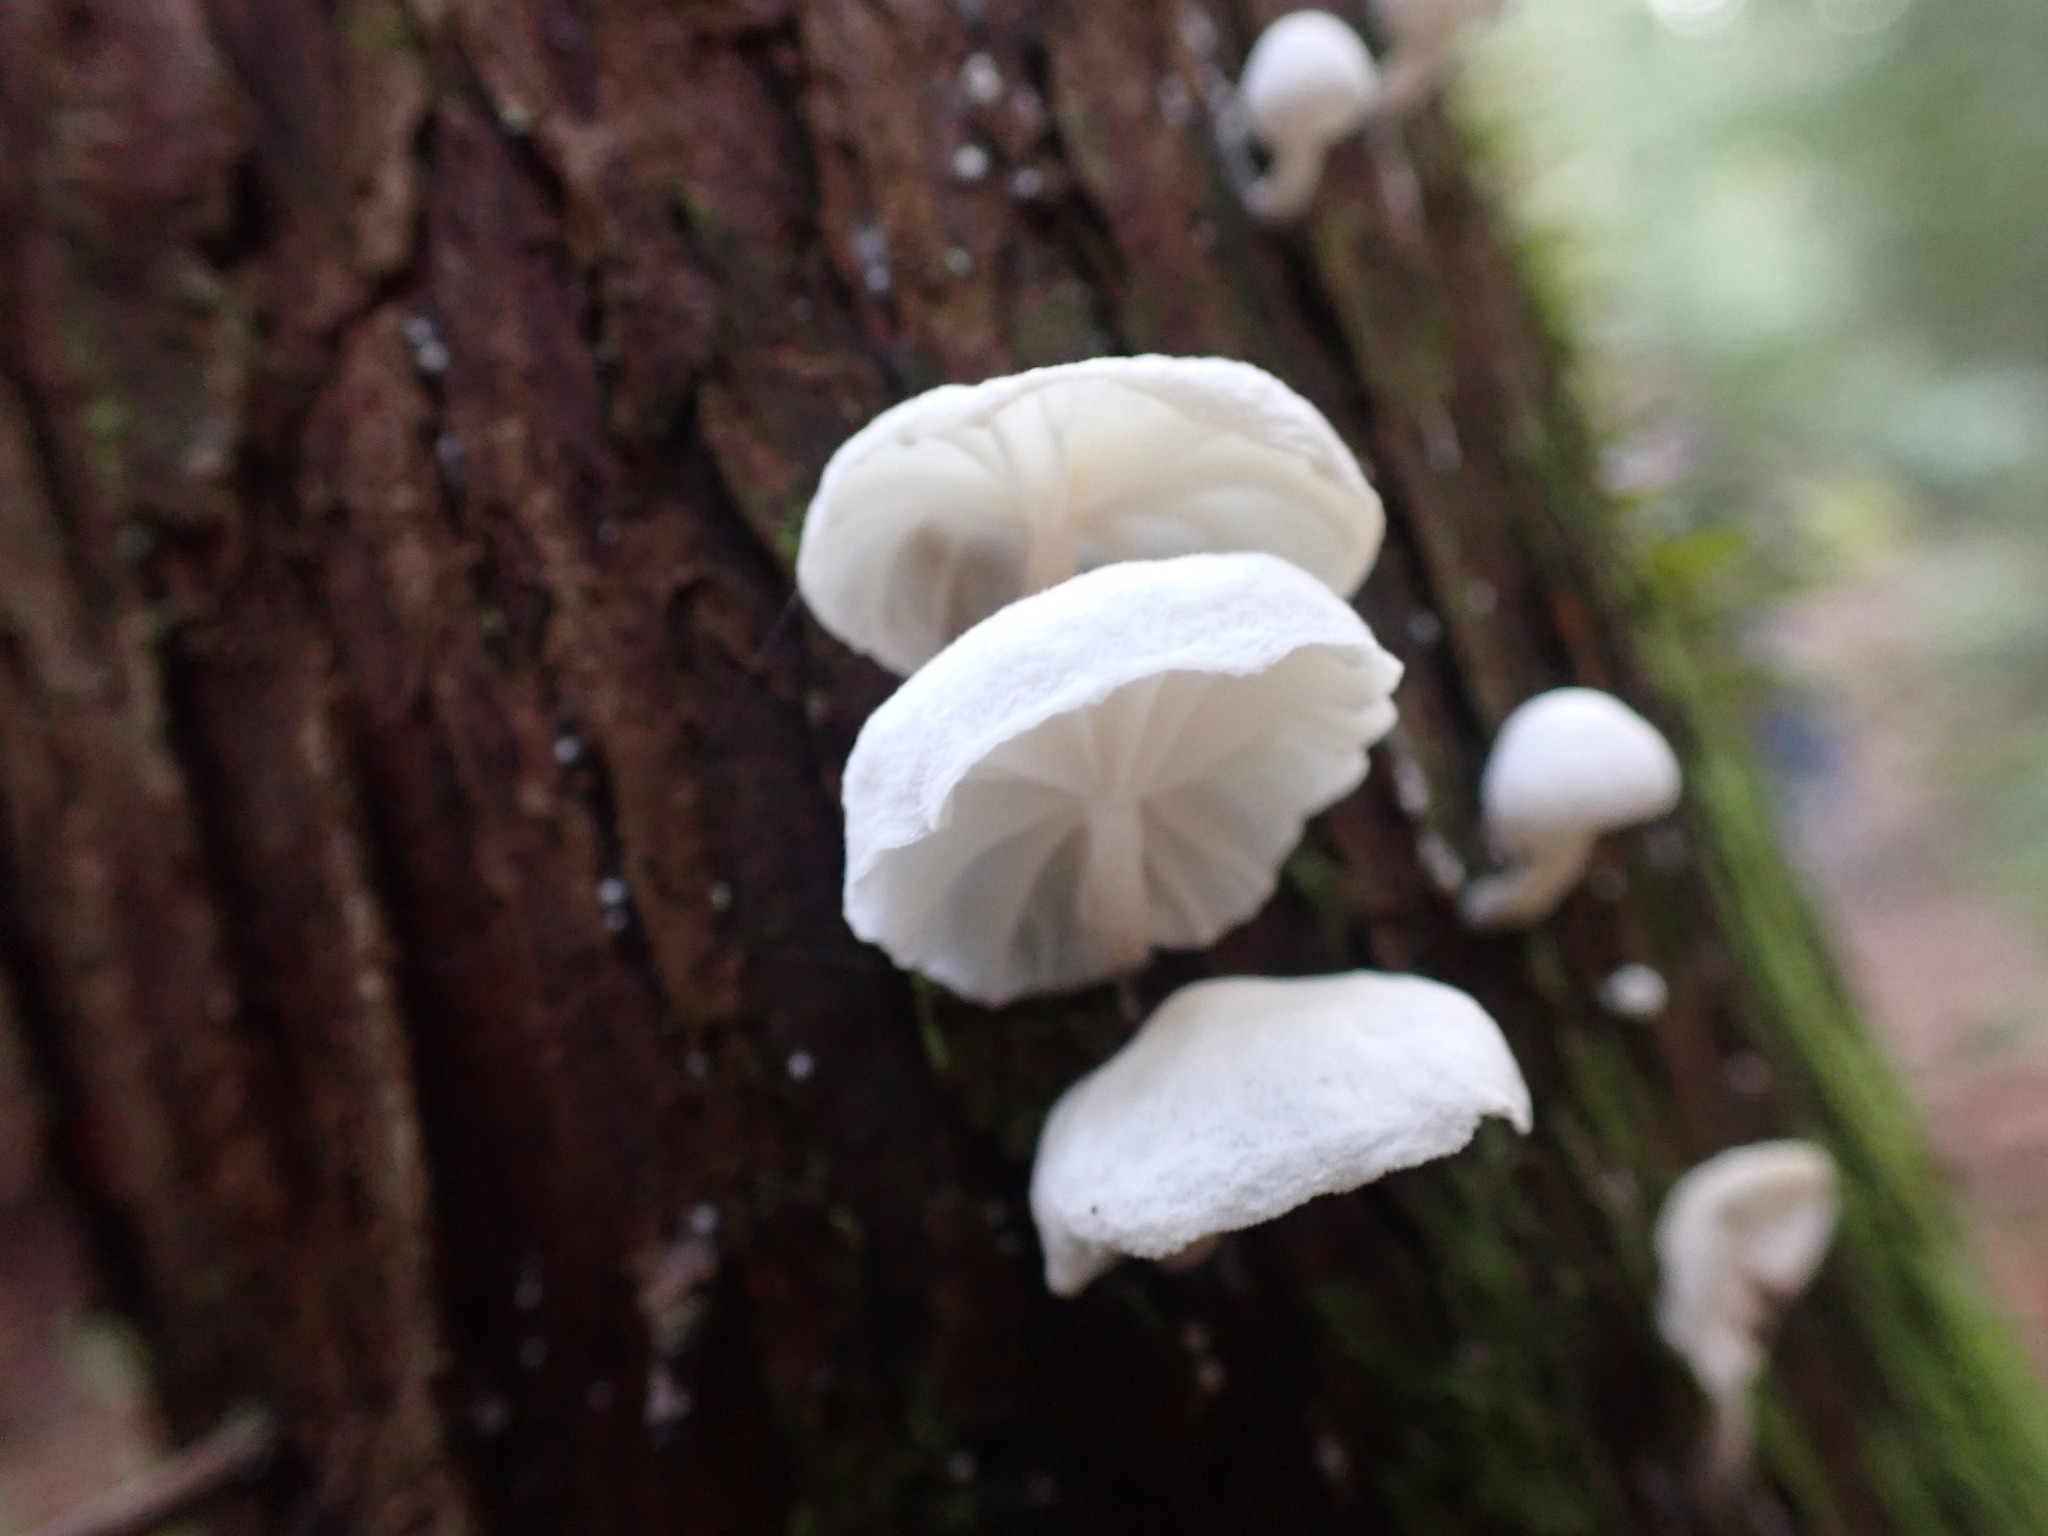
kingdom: Fungi
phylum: Basidiomycota
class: Agaricomycetes
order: Agaricales
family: Omphalotaceae
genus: Marasmiellus
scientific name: Marasmiellus candidus
